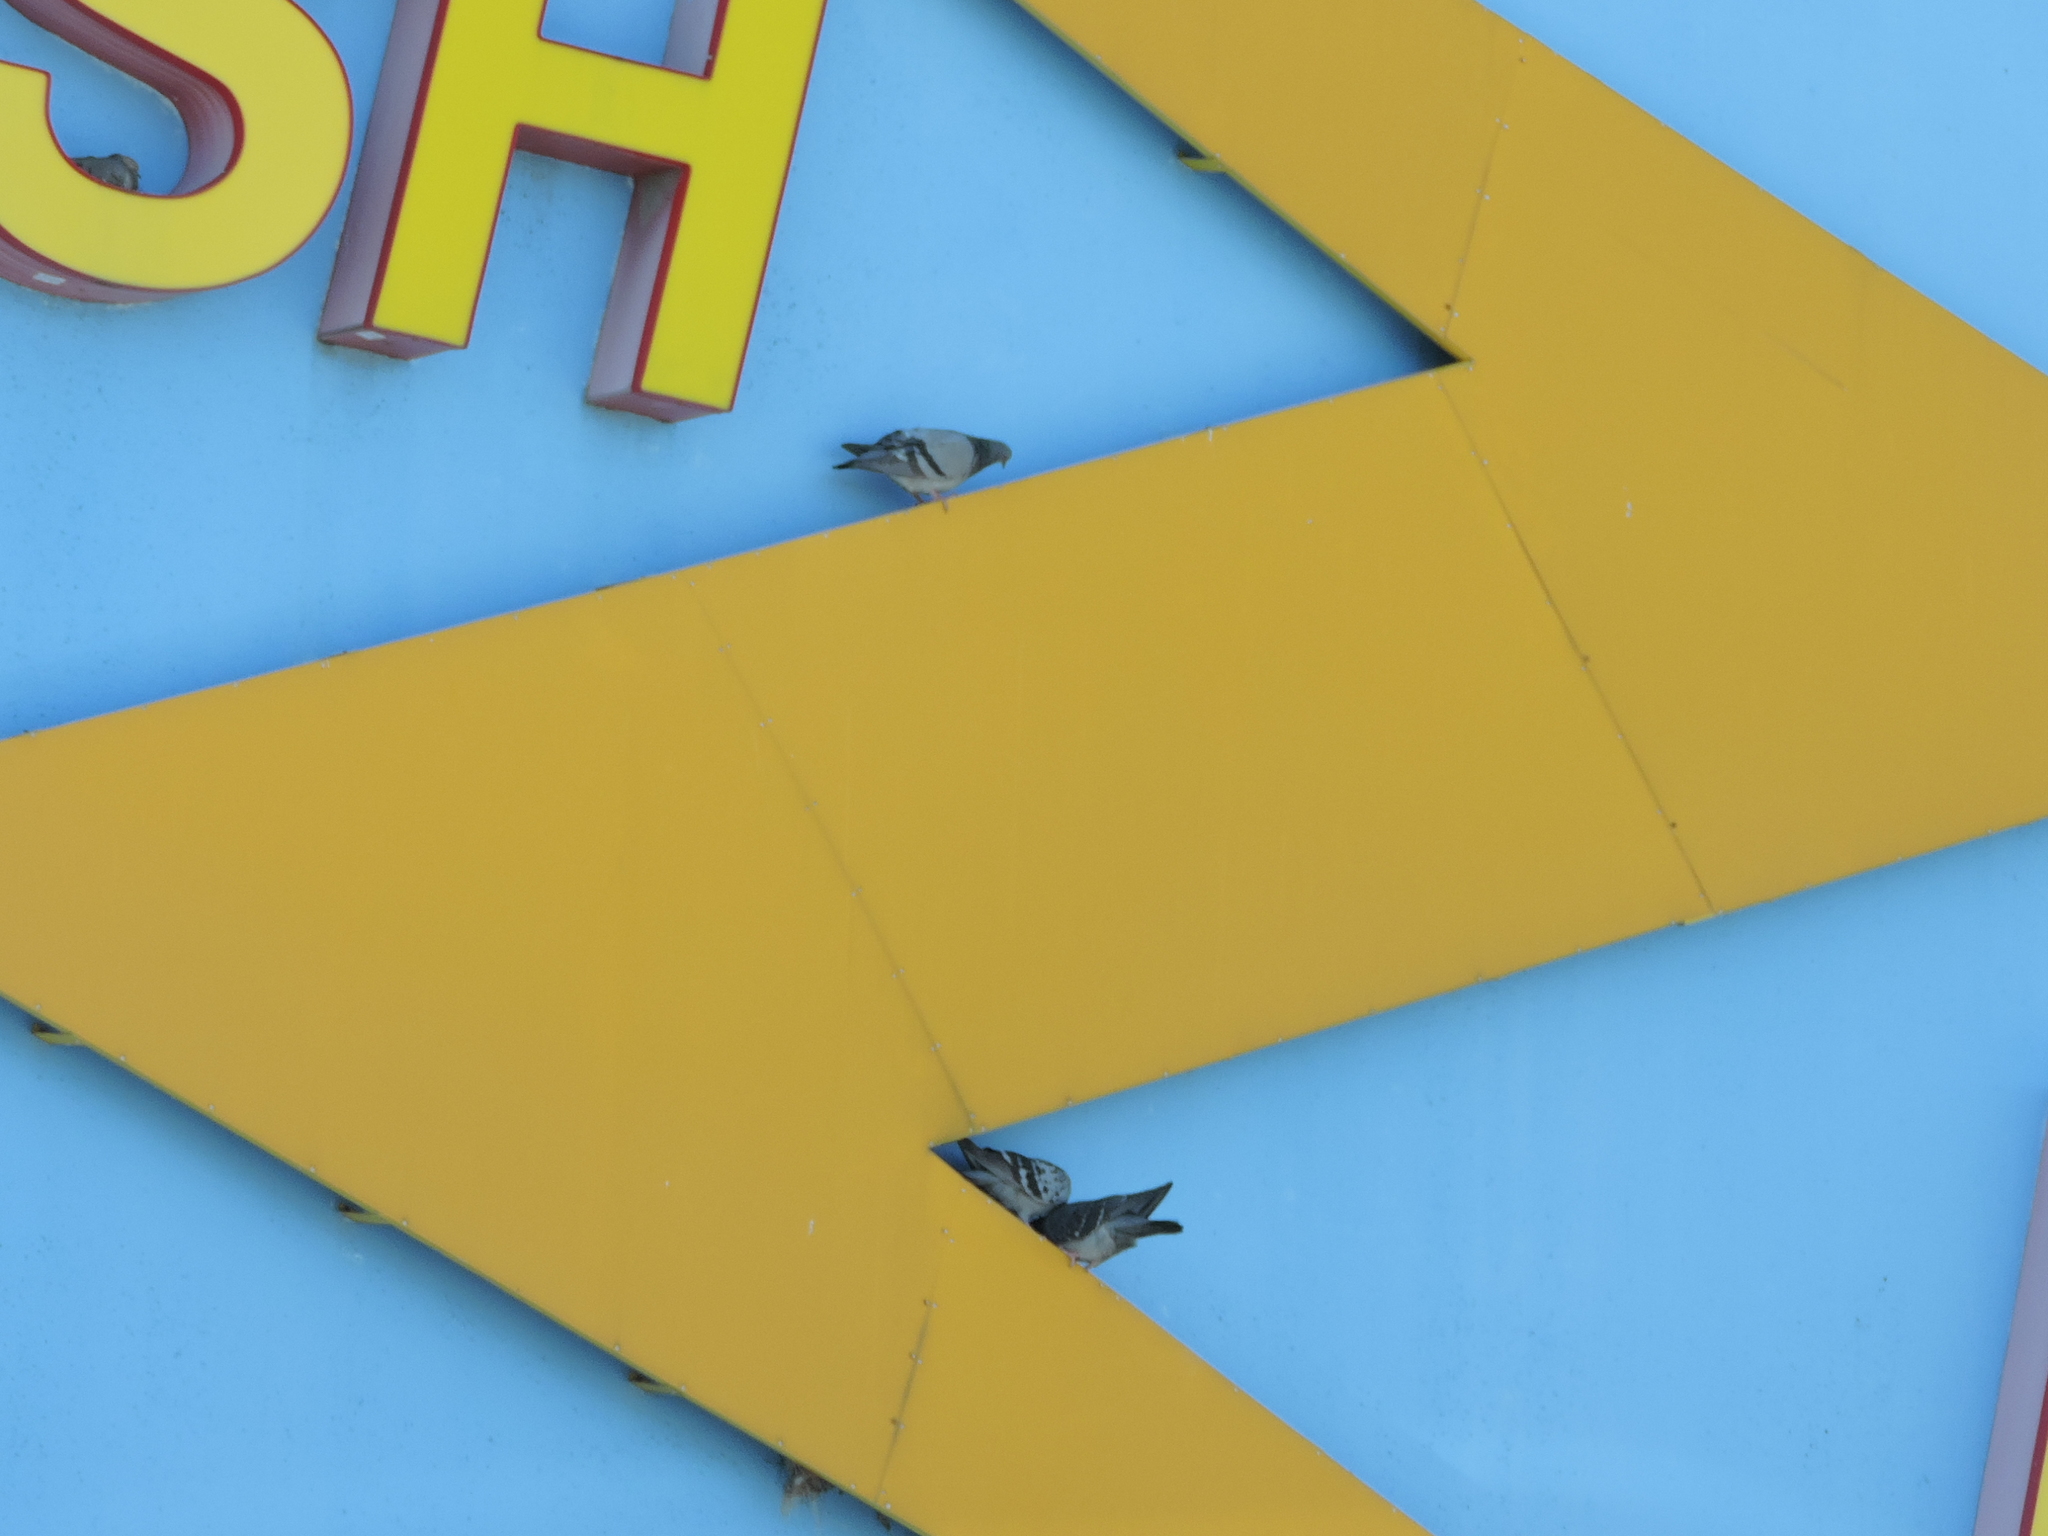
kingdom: Animalia
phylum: Chordata
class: Aves
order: Columbiformes
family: Columbidae
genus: Columba
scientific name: Columba livia
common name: Rock pigeon
